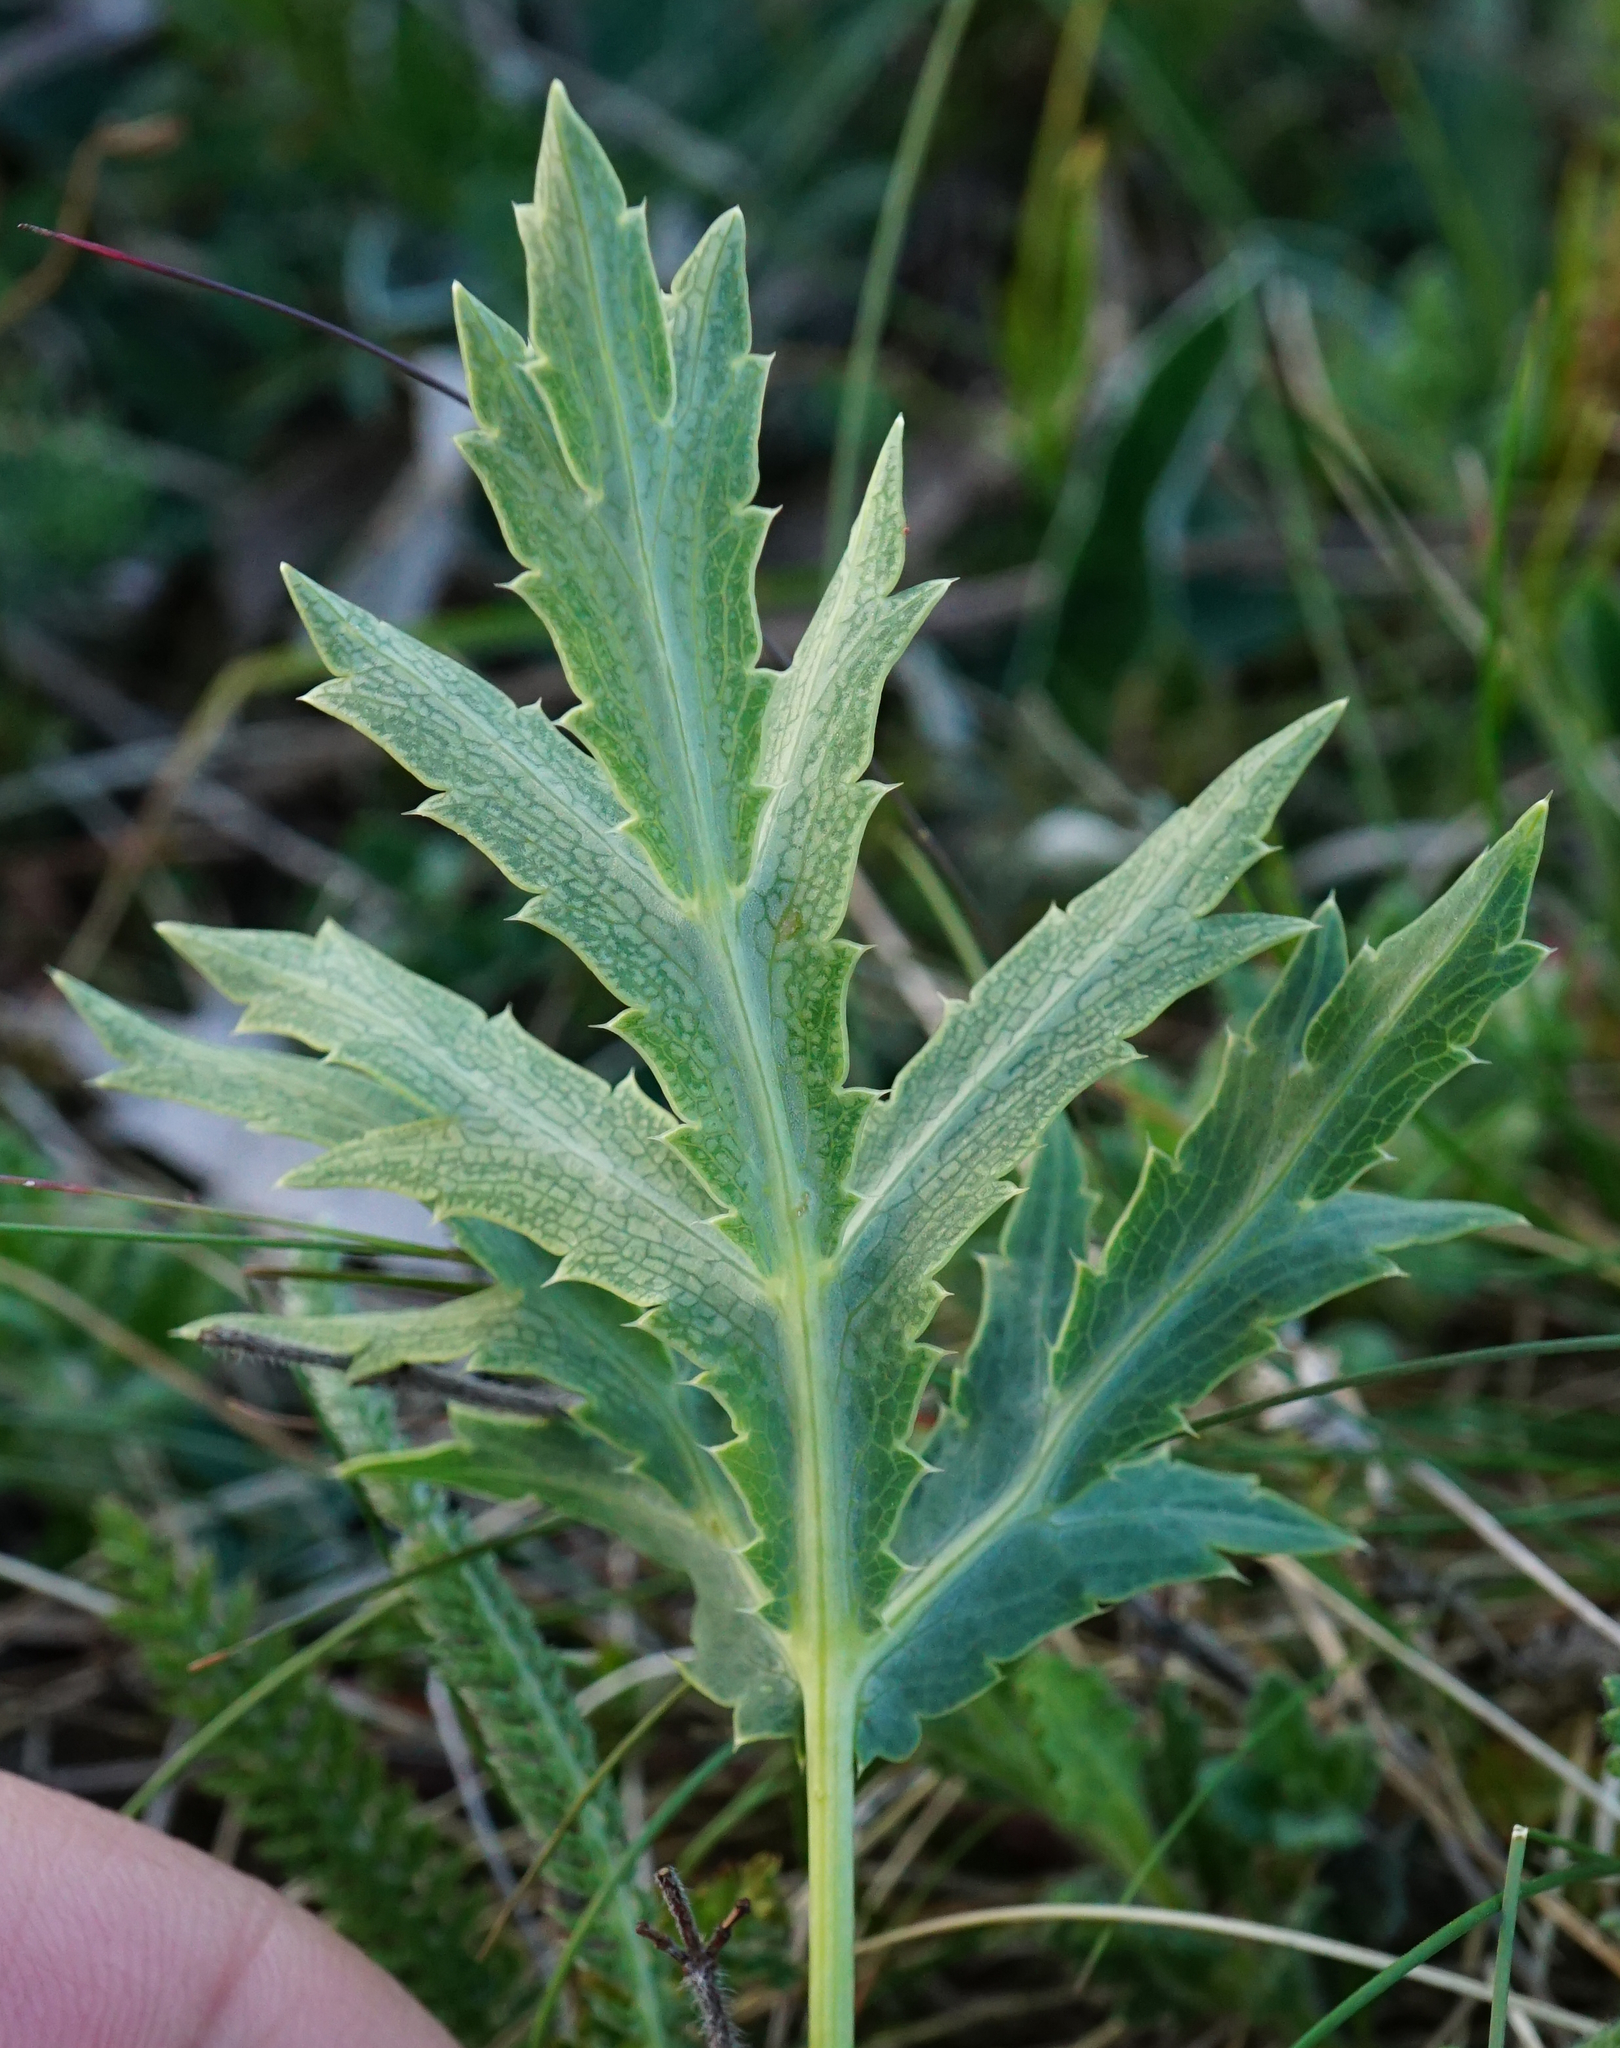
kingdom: Plantae
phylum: Tracheophyta
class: Magnoliopsida
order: Apiales
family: Apiaceae
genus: Eryngium
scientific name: Eryngium campestre
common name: Field eryngo
